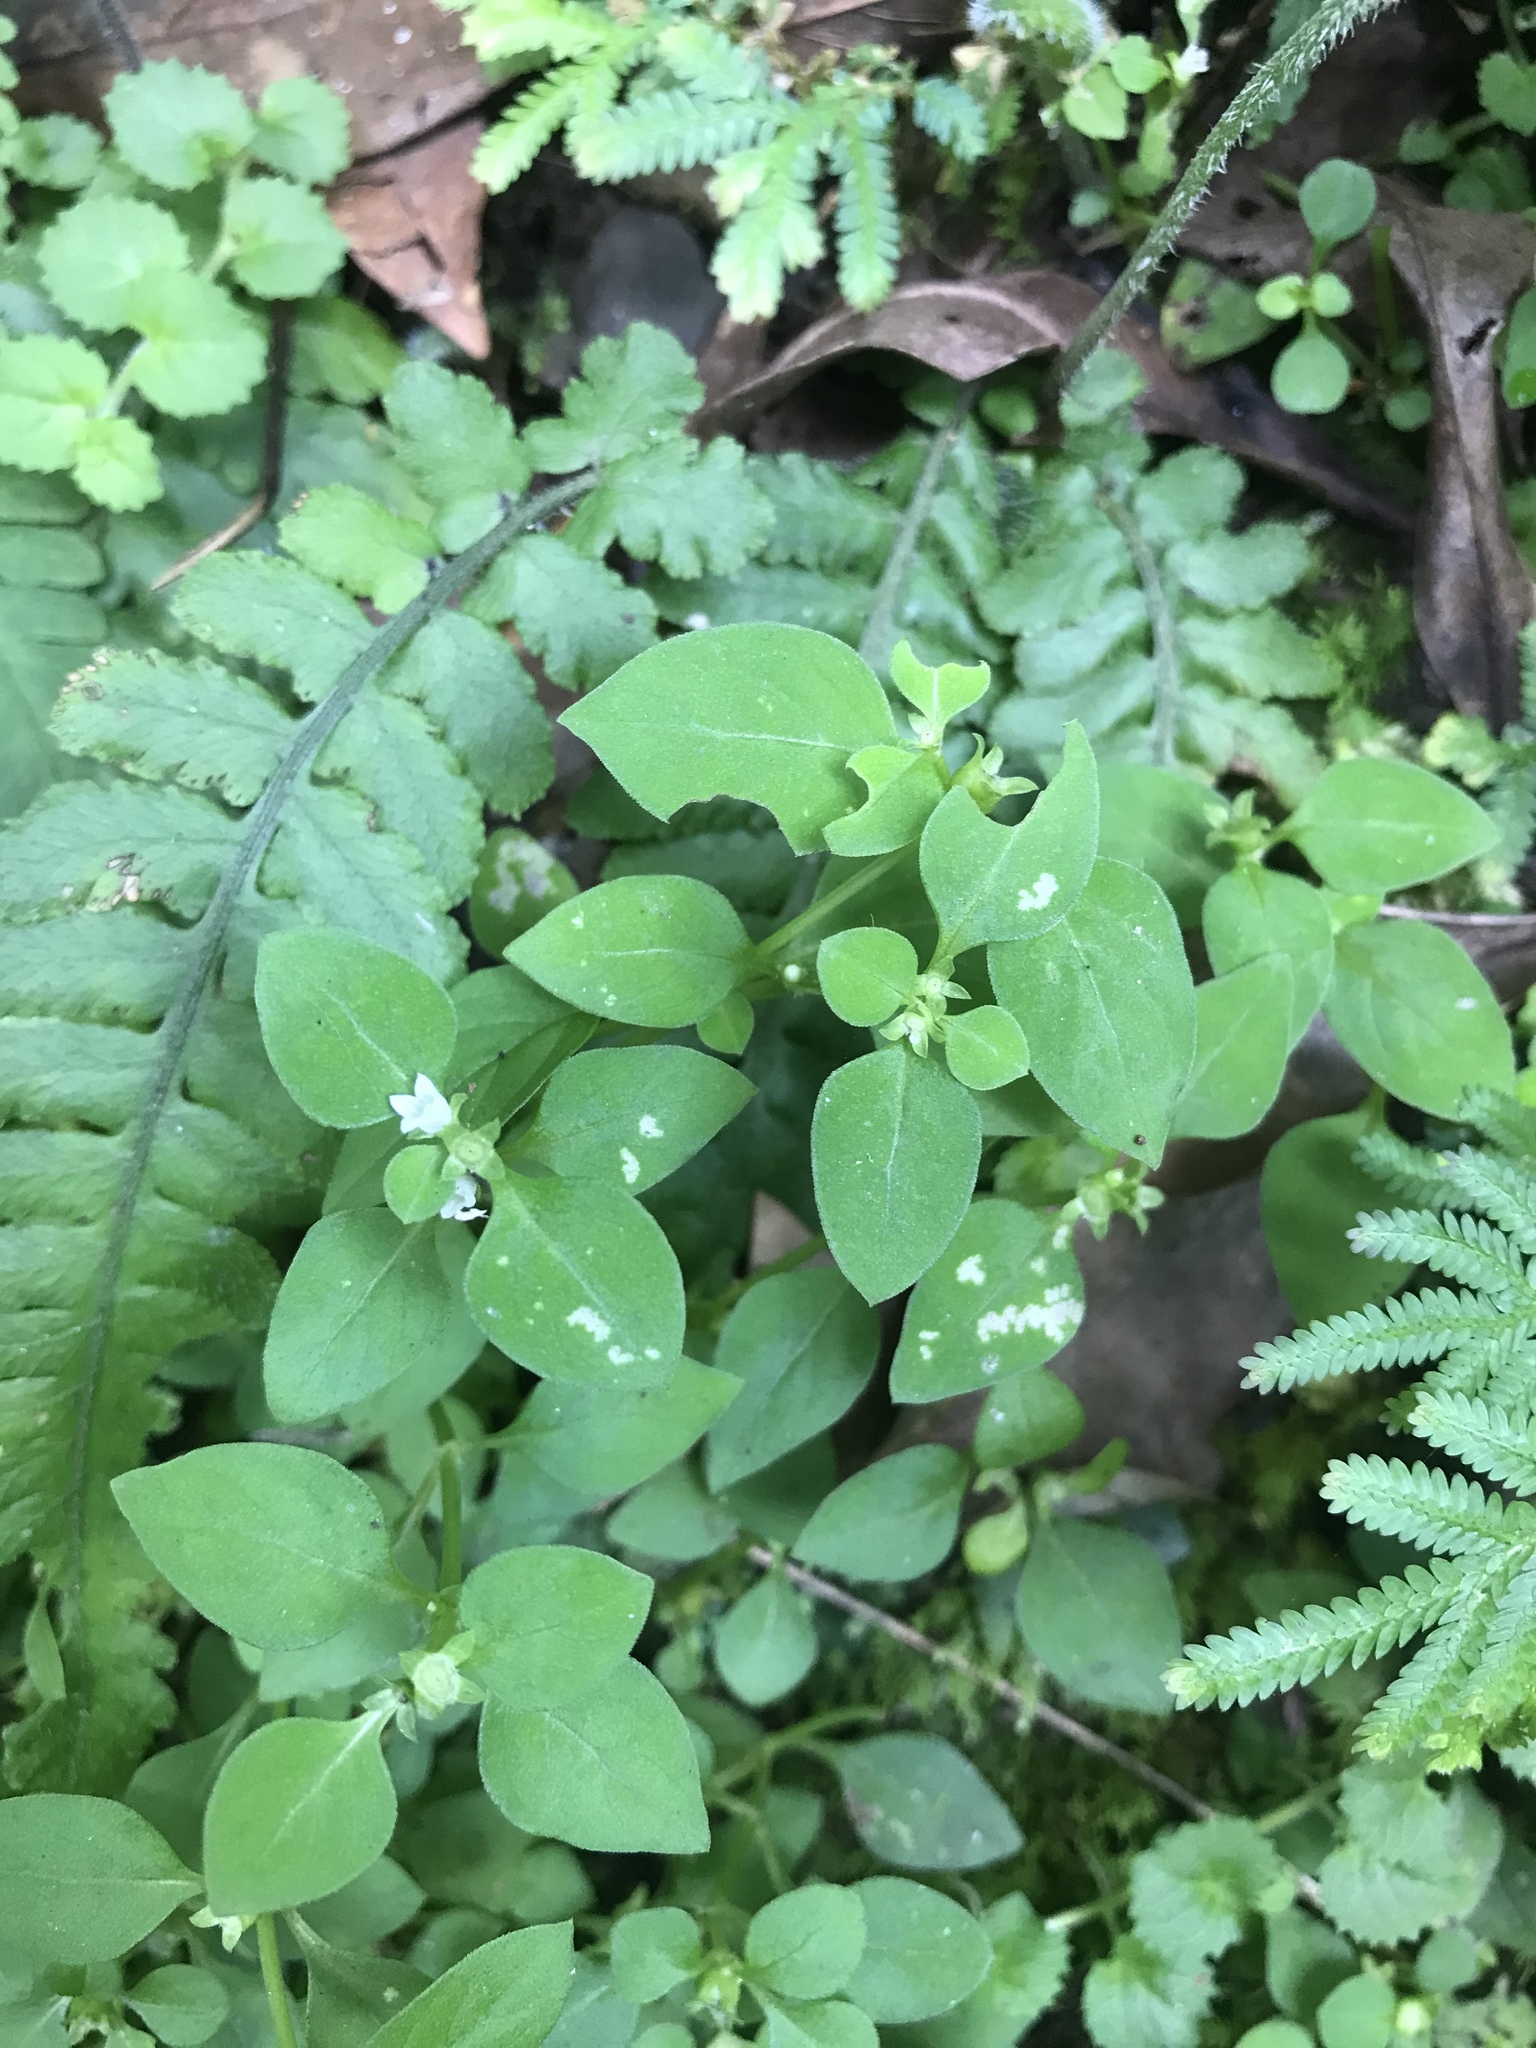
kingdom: Plantae
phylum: Tracheophyta
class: Magnoliopsida
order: Gentianales
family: Rubiaceae
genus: Neanotis
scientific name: Neanotis hirsuta
